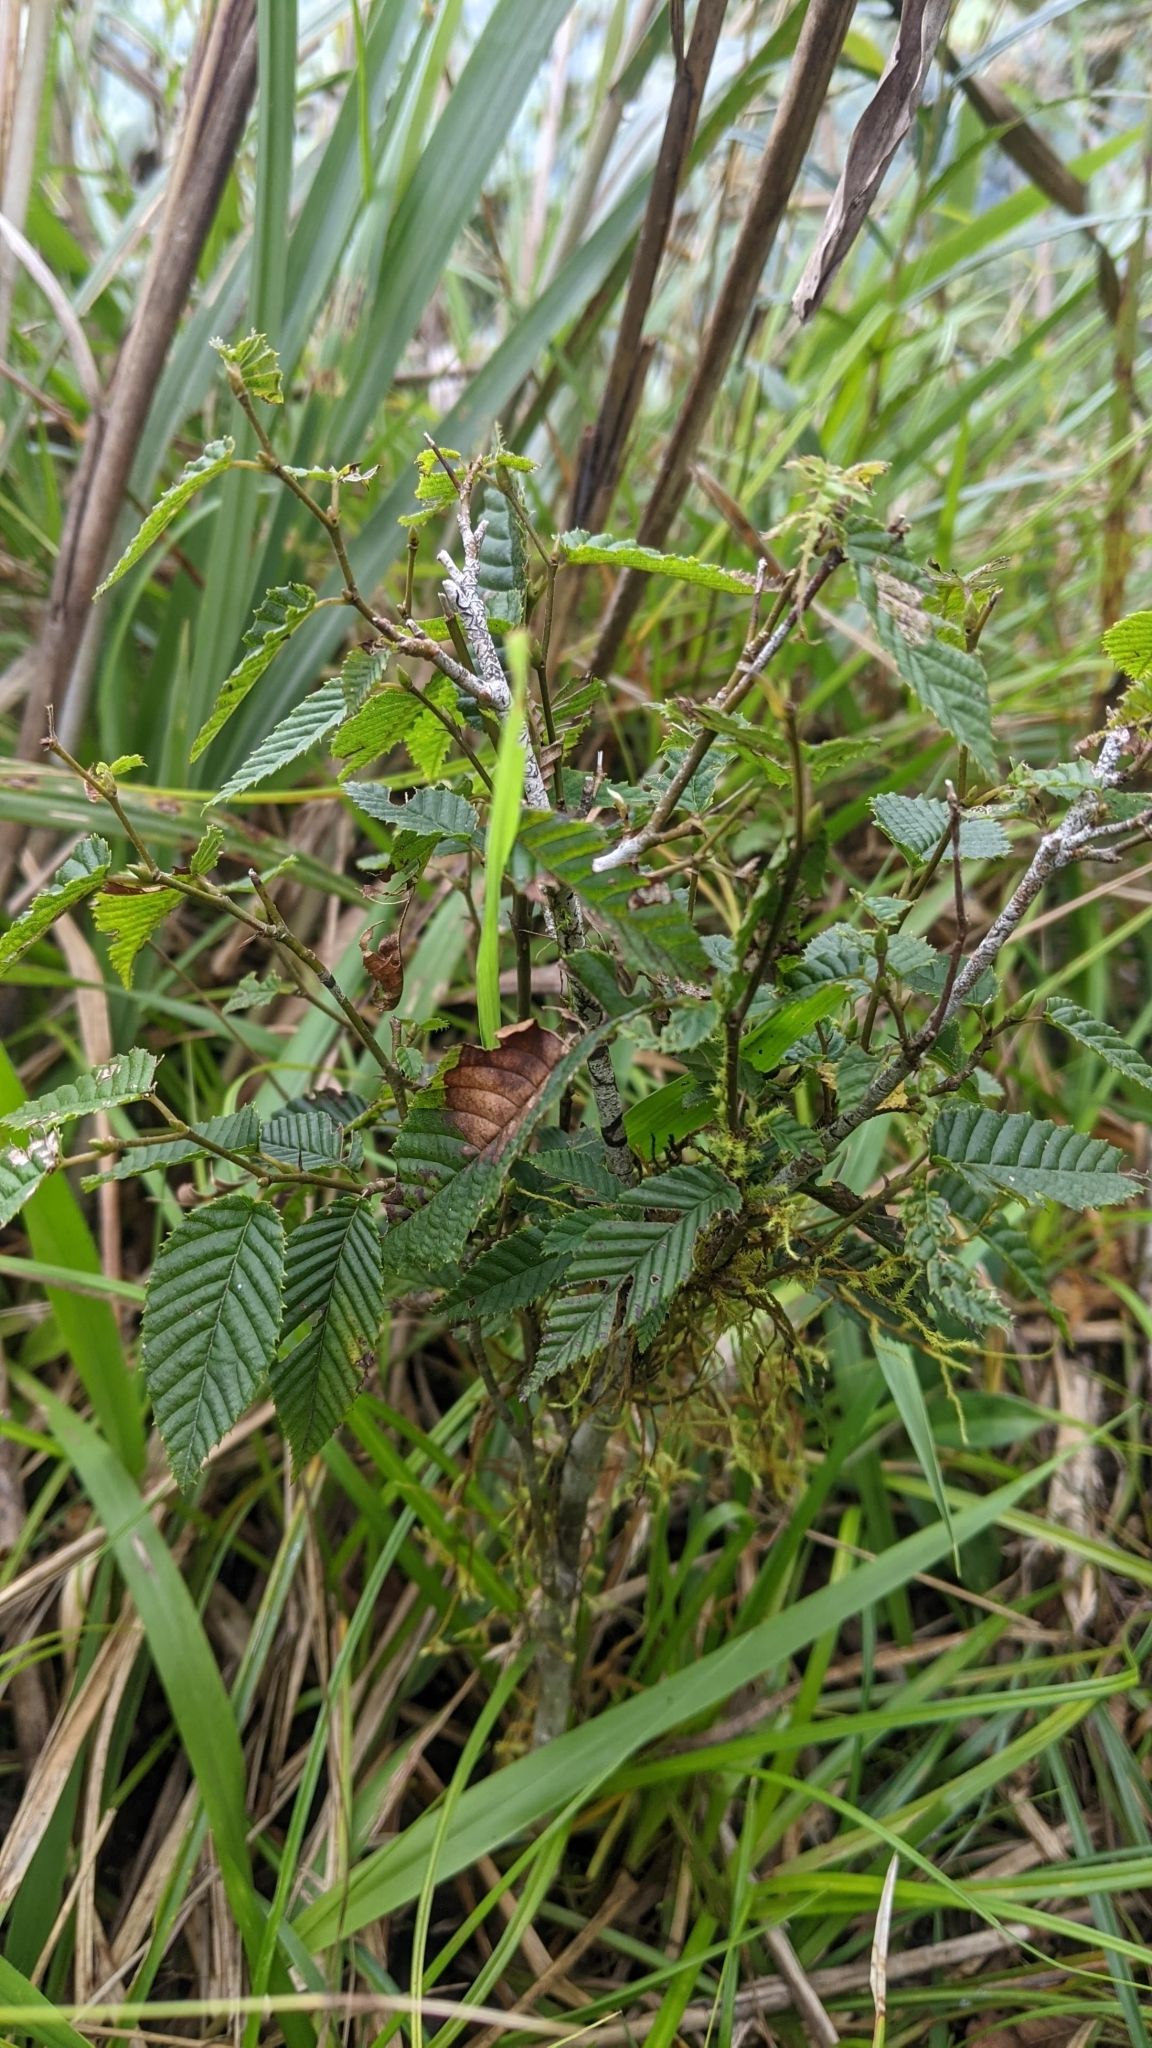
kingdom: Plantae
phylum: Tracheophyta
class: Magnoliopsida
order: Fagales
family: Betulaceae
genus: Carpinus
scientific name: Carpinus rankanensis
